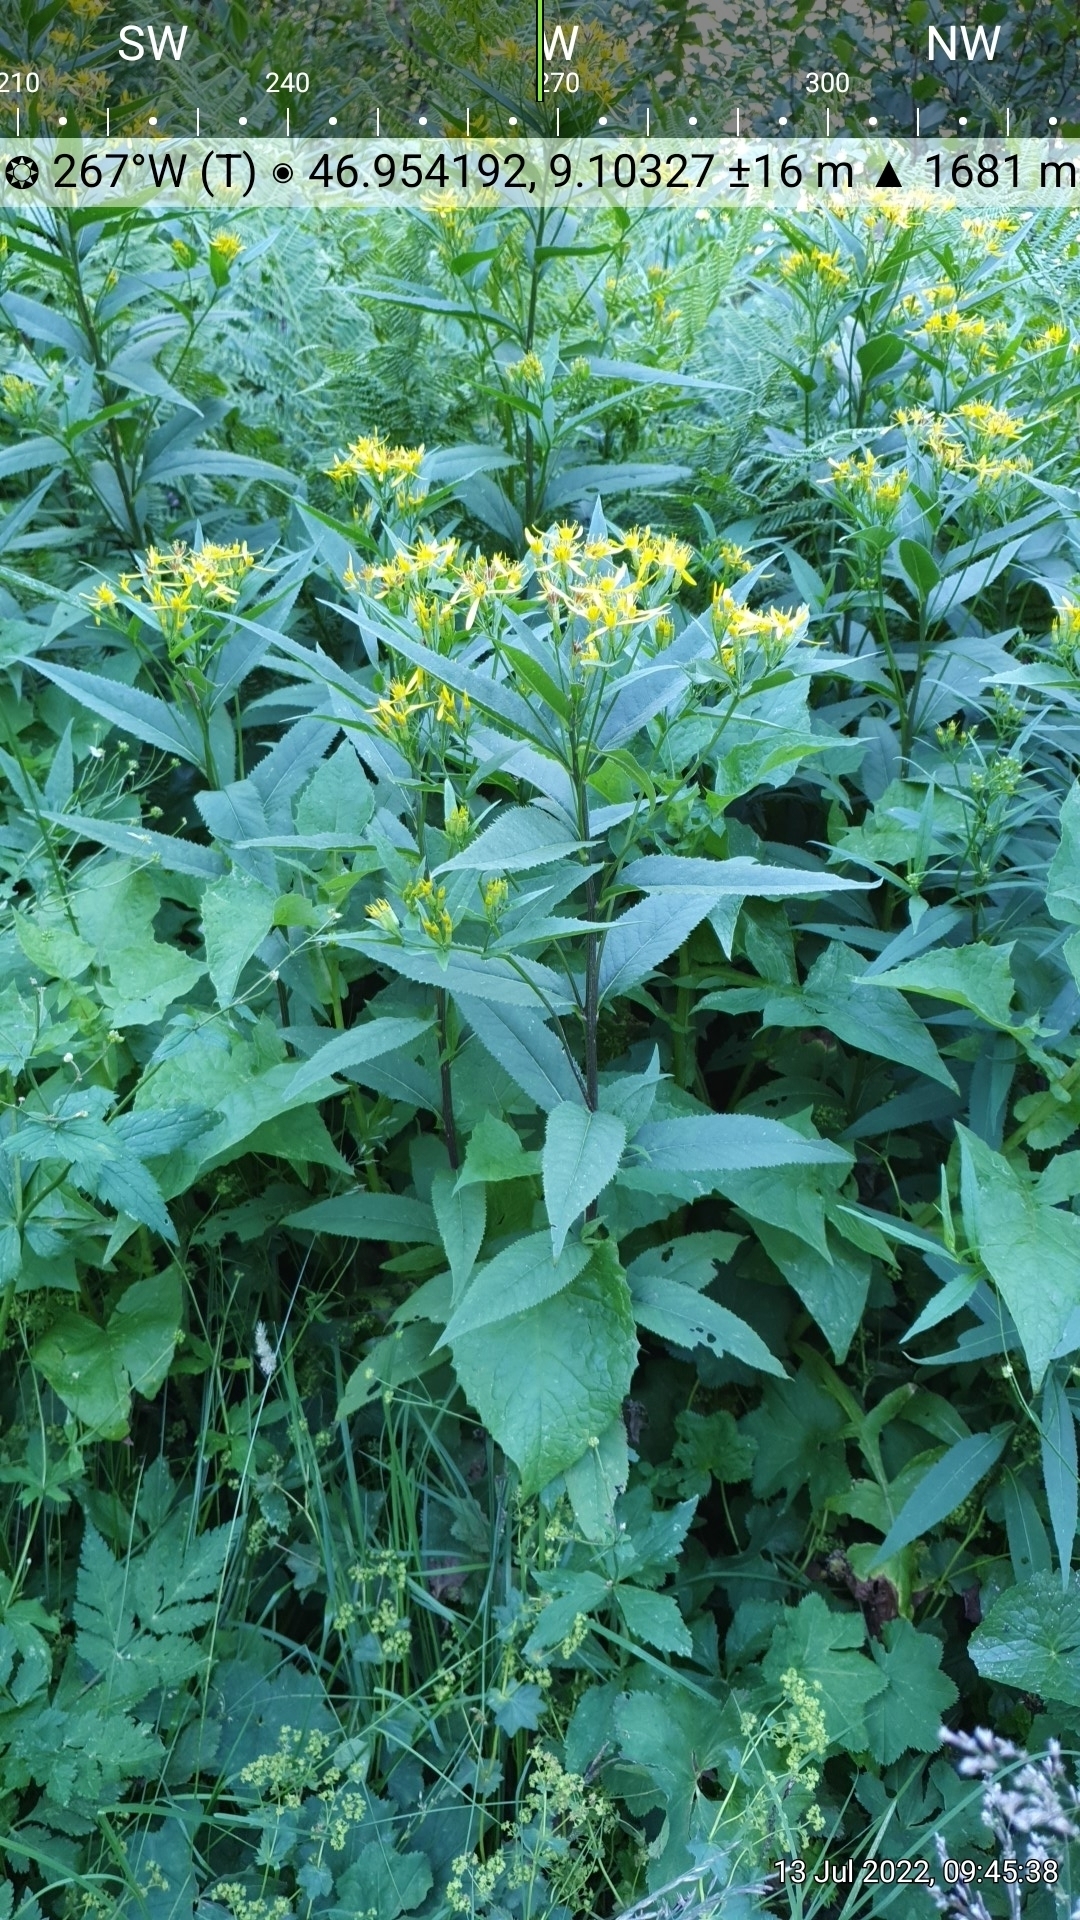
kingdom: Plantae
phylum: Tracheophyta
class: Magnoliopsida
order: Asterales
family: Asteraceae
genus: Senecio
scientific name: Senecio ovatus
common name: Wood ragwort
